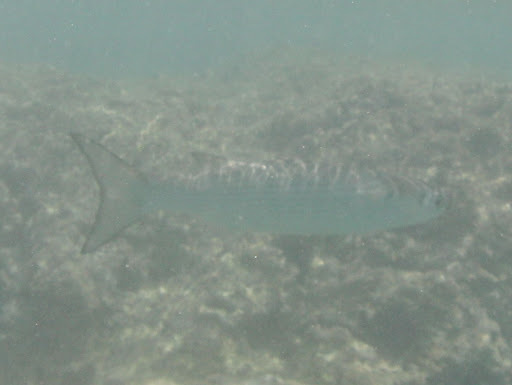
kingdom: Animalia
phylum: Chordata
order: Mugiliformes
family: Mugilidae
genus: Mugil
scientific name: Mugil cephalus
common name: Grey mullet
